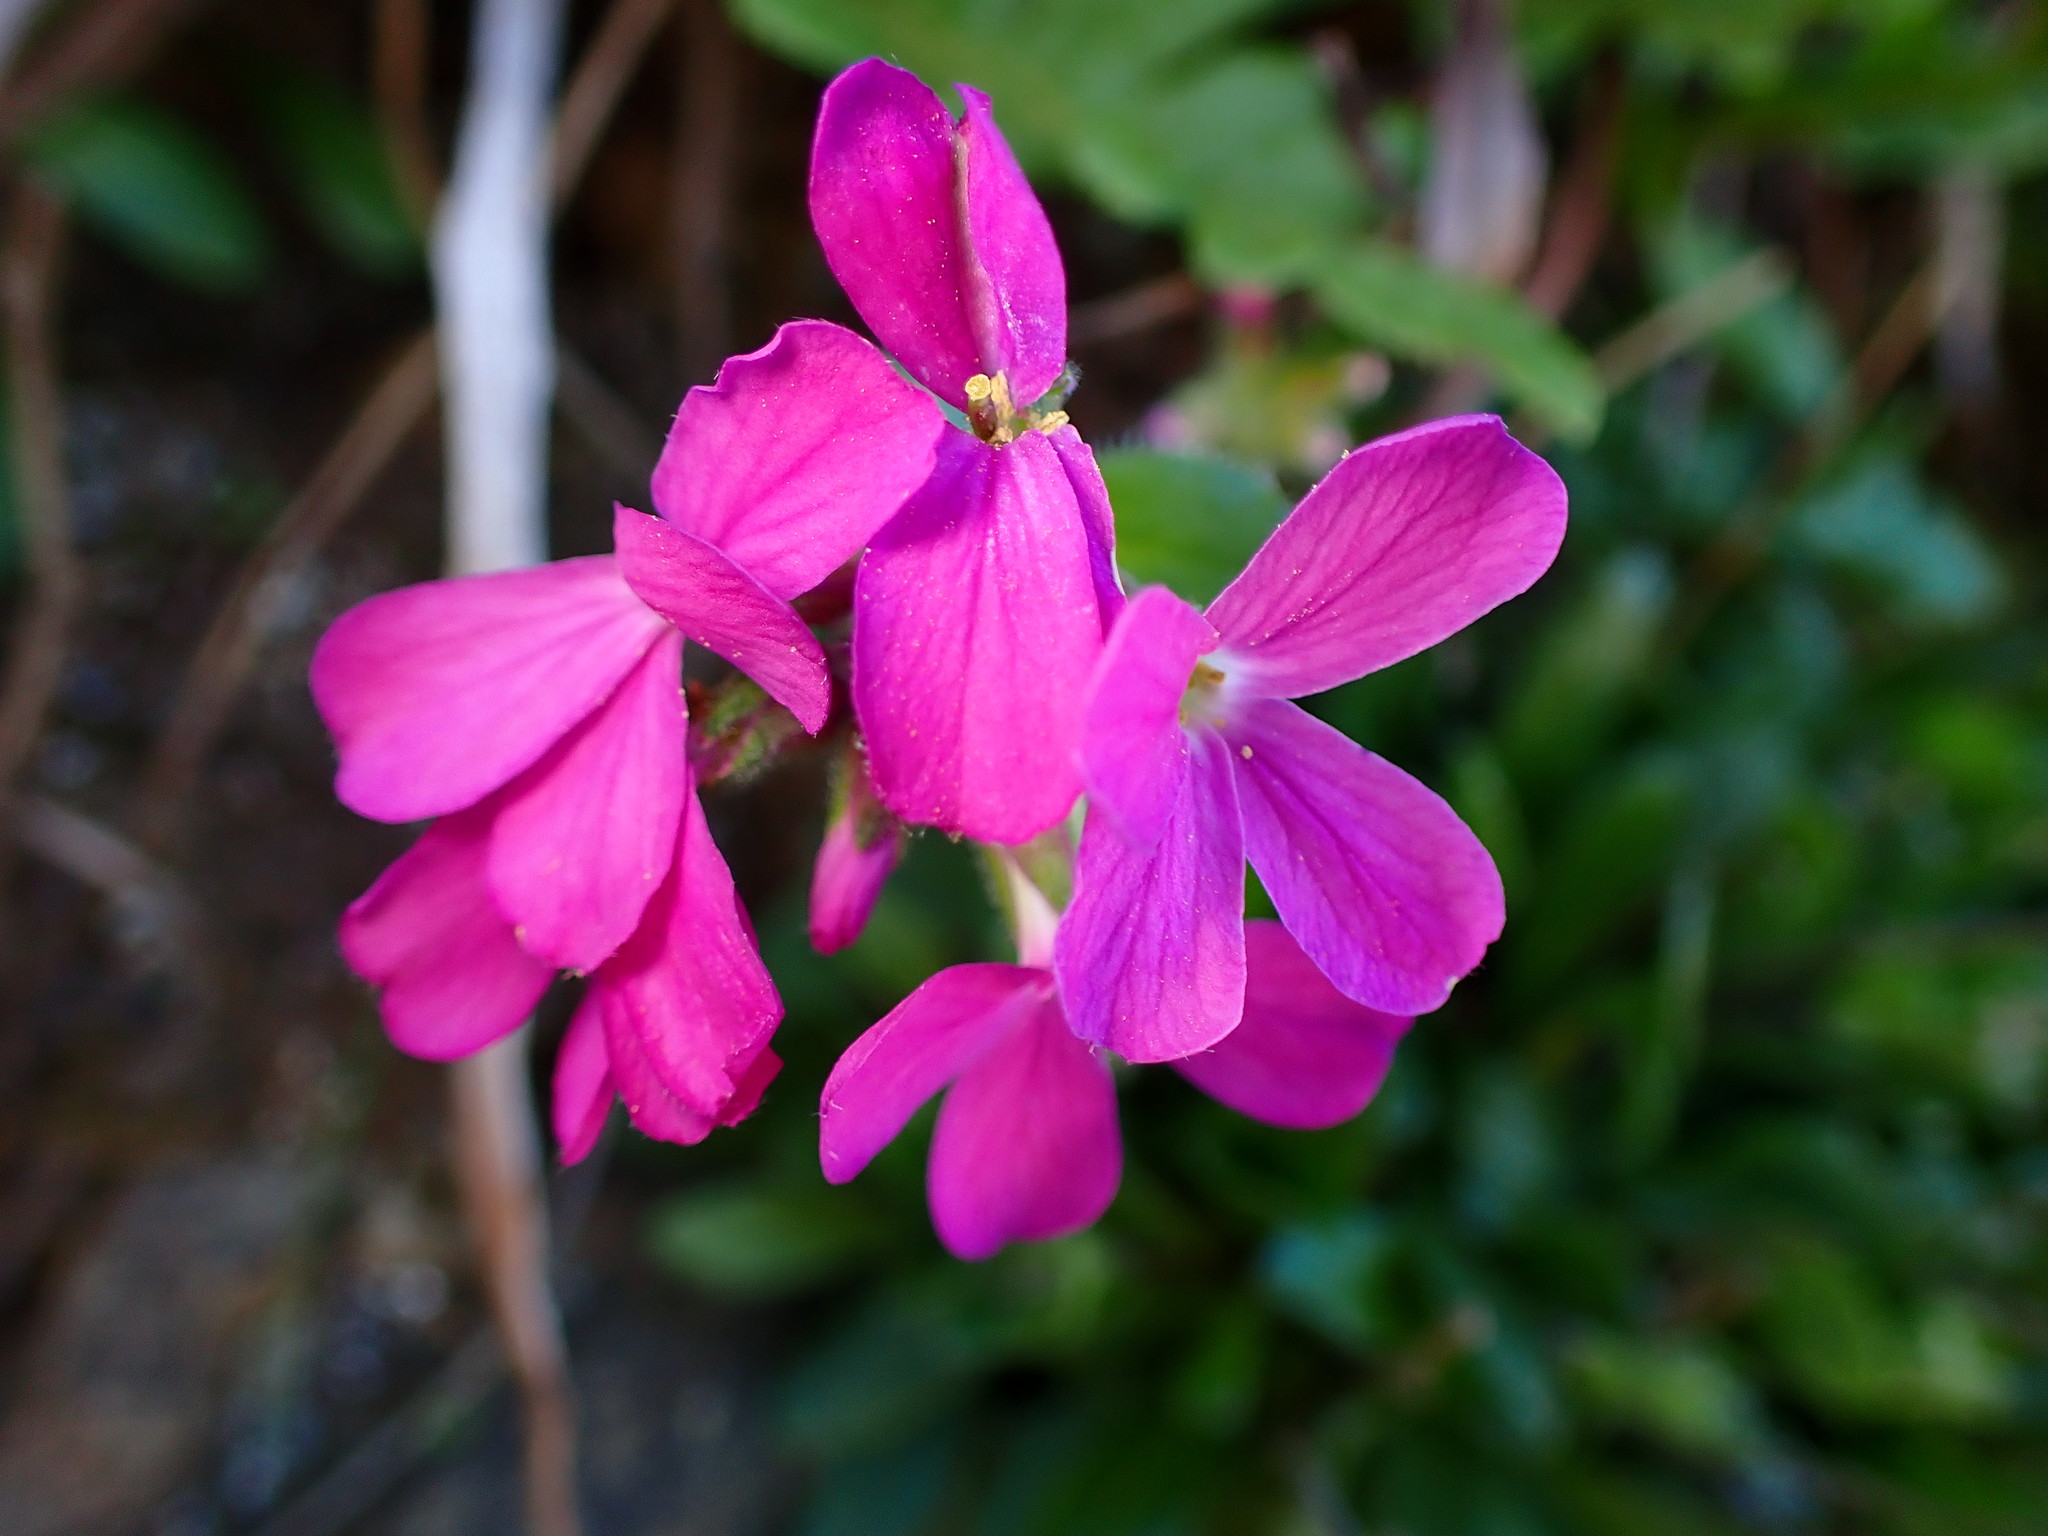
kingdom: Plantae
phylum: Tracheophyta
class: Magnoliopsida
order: Brassicales
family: Brassicaceae
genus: Arabis
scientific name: Arabis blepharophylla
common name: Rose rockcress
